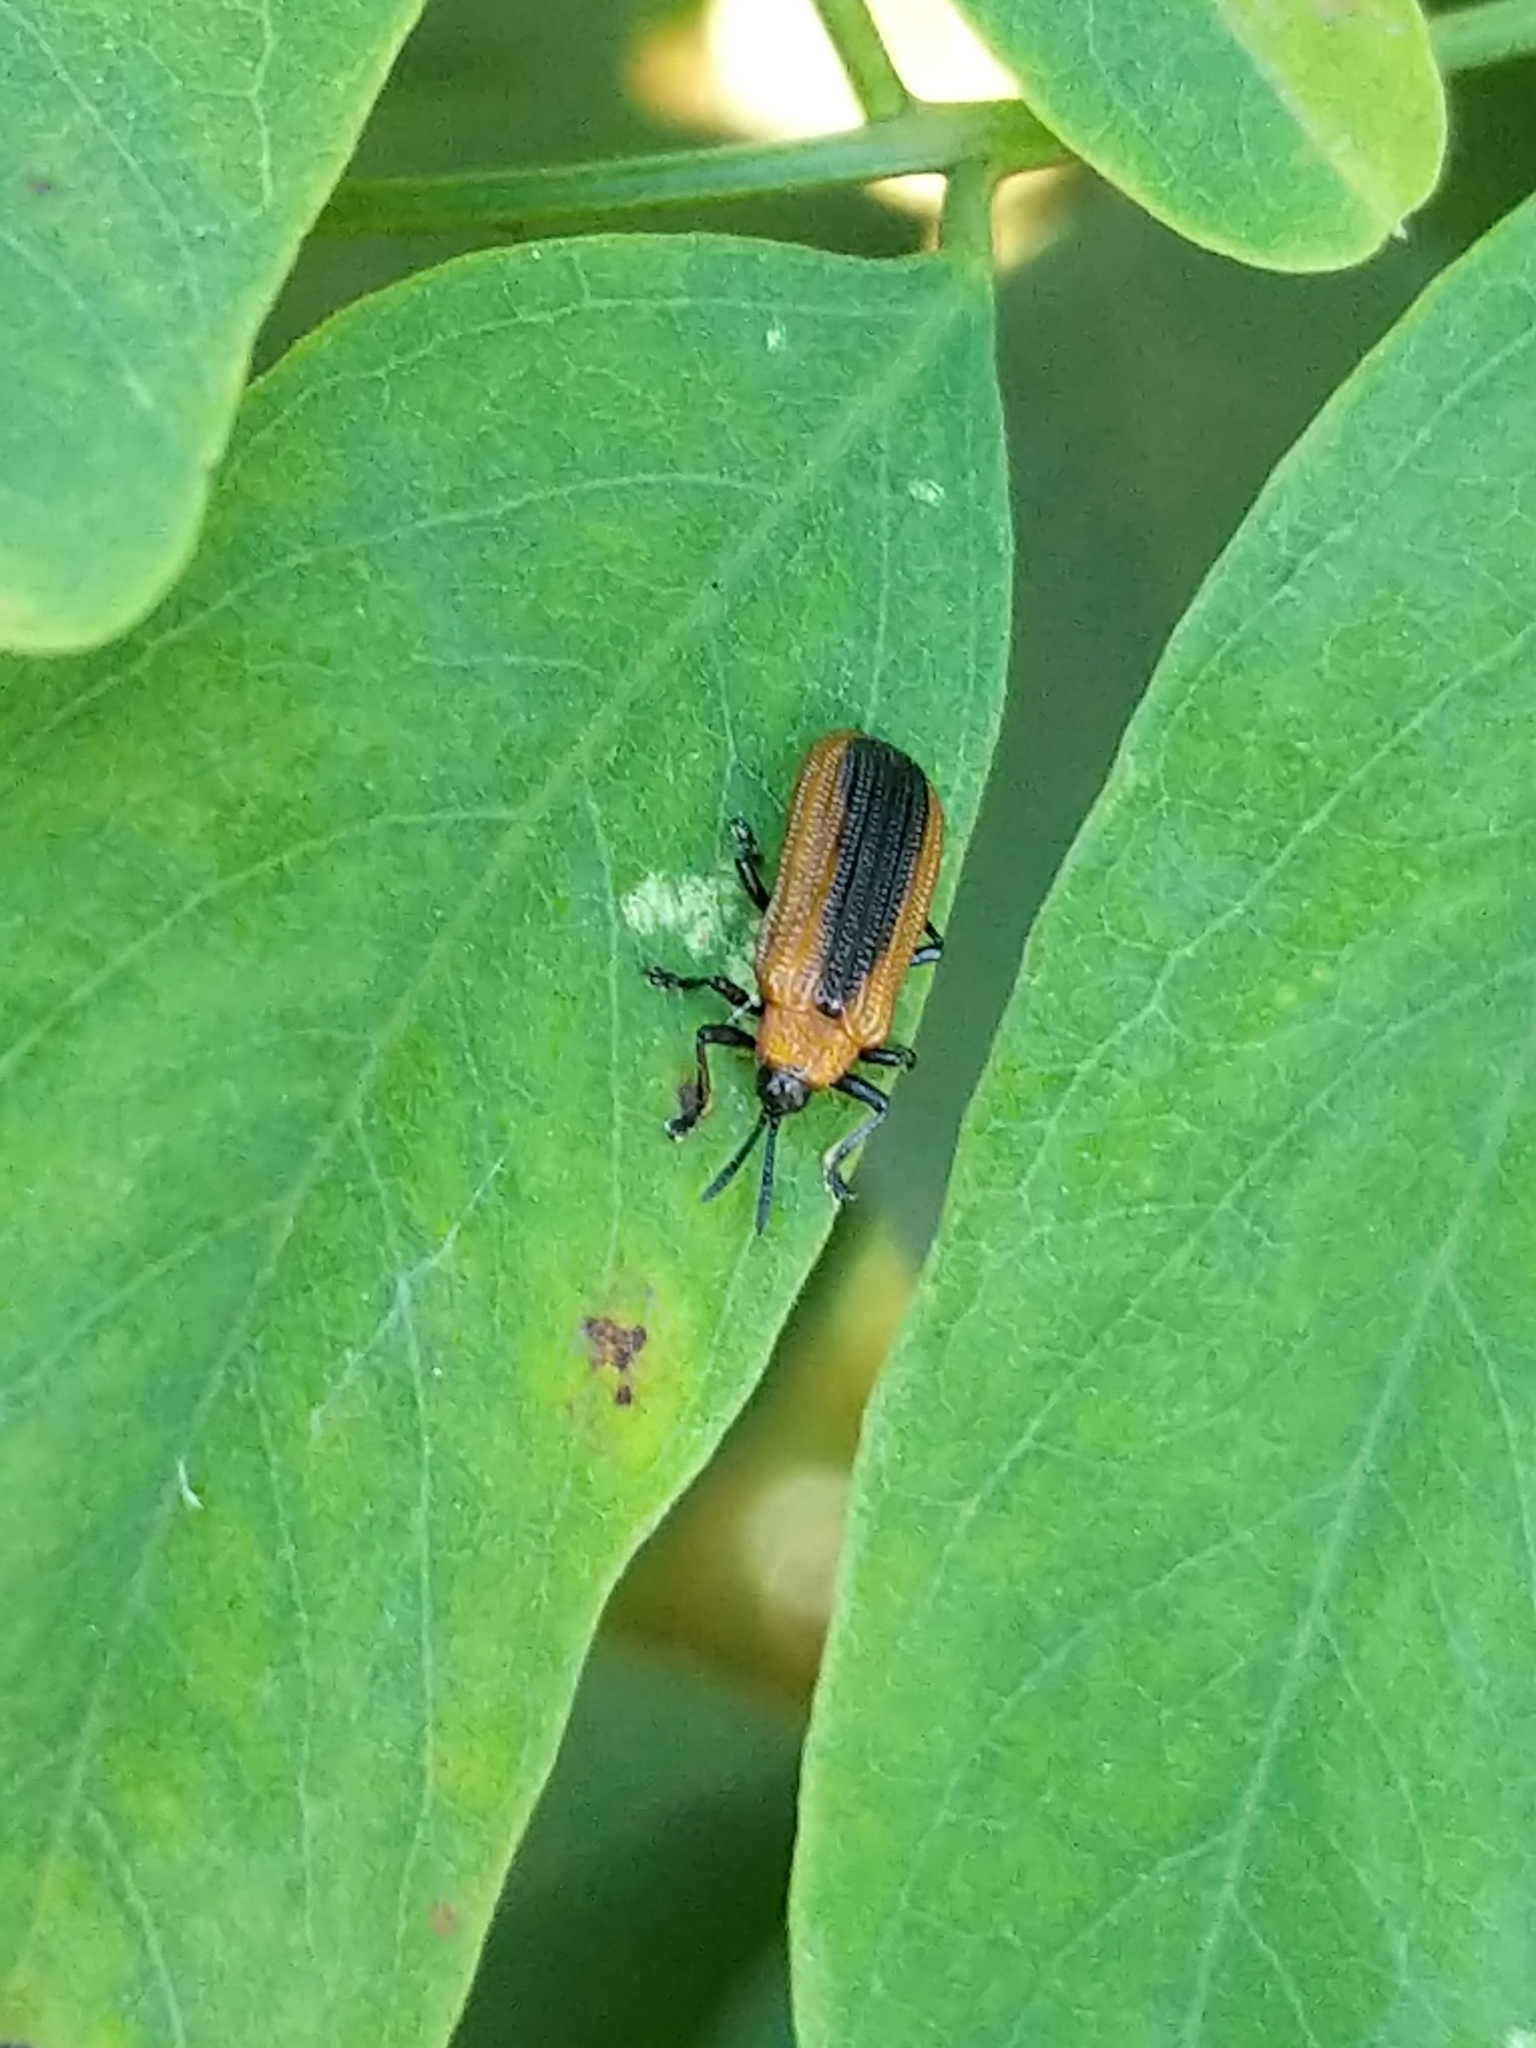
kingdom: Animalia
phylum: Arthropoda
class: Insecta
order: Coleoptera
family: Chrysomelidae
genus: Odontota
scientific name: Odontota dorsalis
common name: Locust leaf-miner beetle
